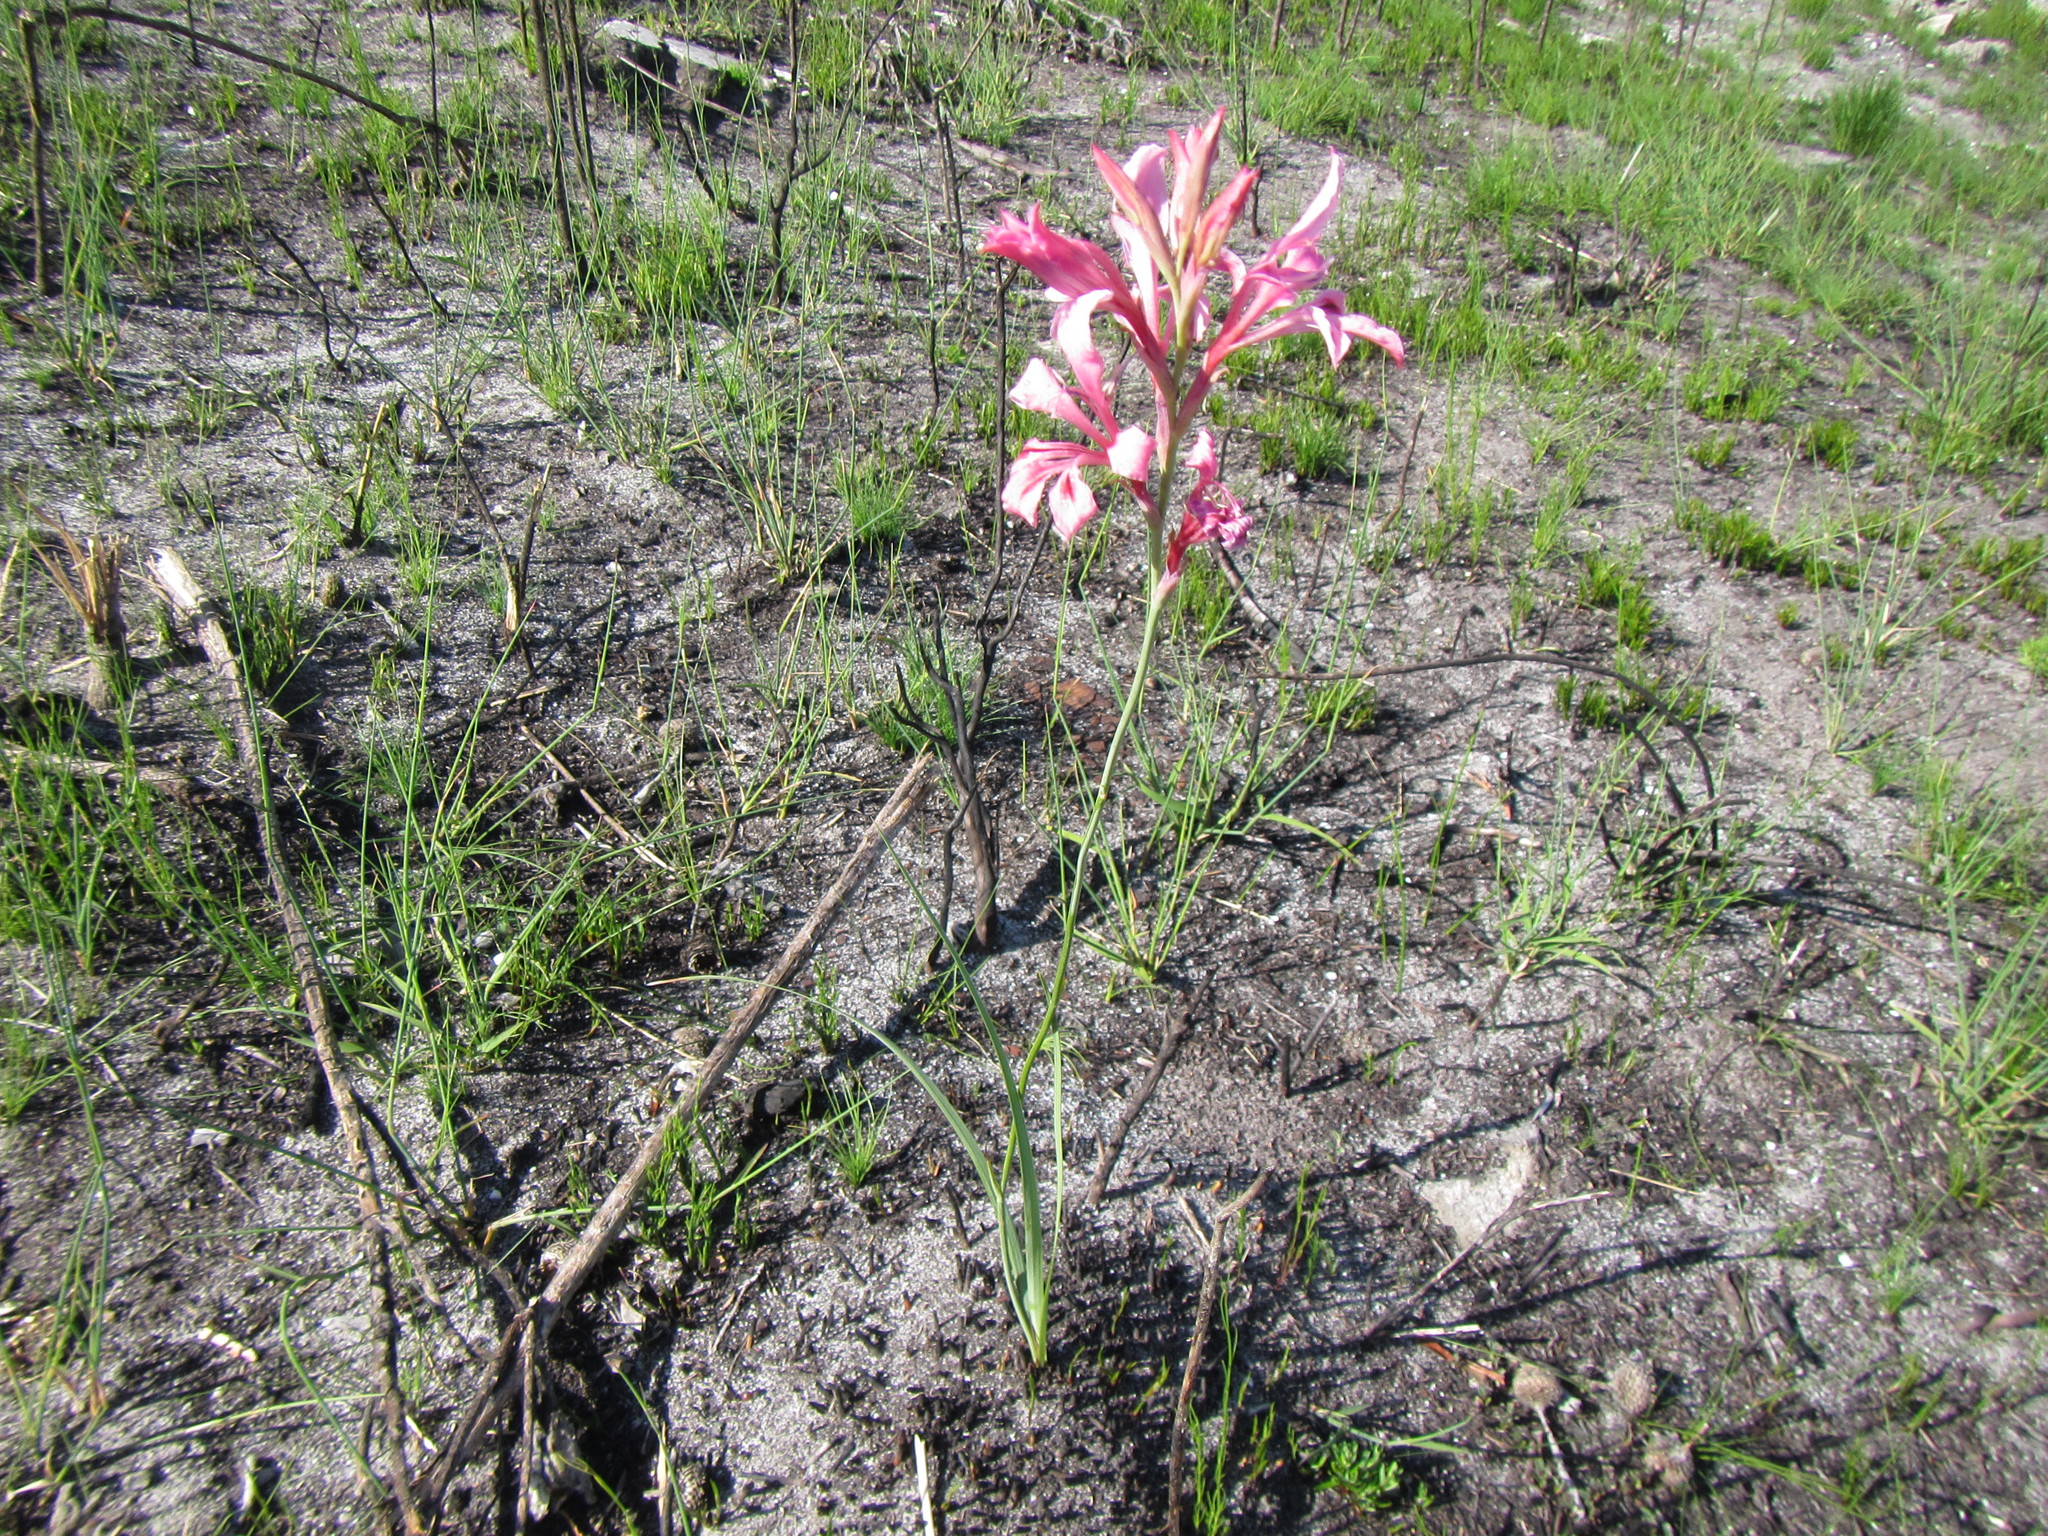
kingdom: Plantae
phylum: Tracheophyta
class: Liliopsida
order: Asparagales
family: Iridaceae
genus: Tritoniopsis
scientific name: Tritoniopsis lata
